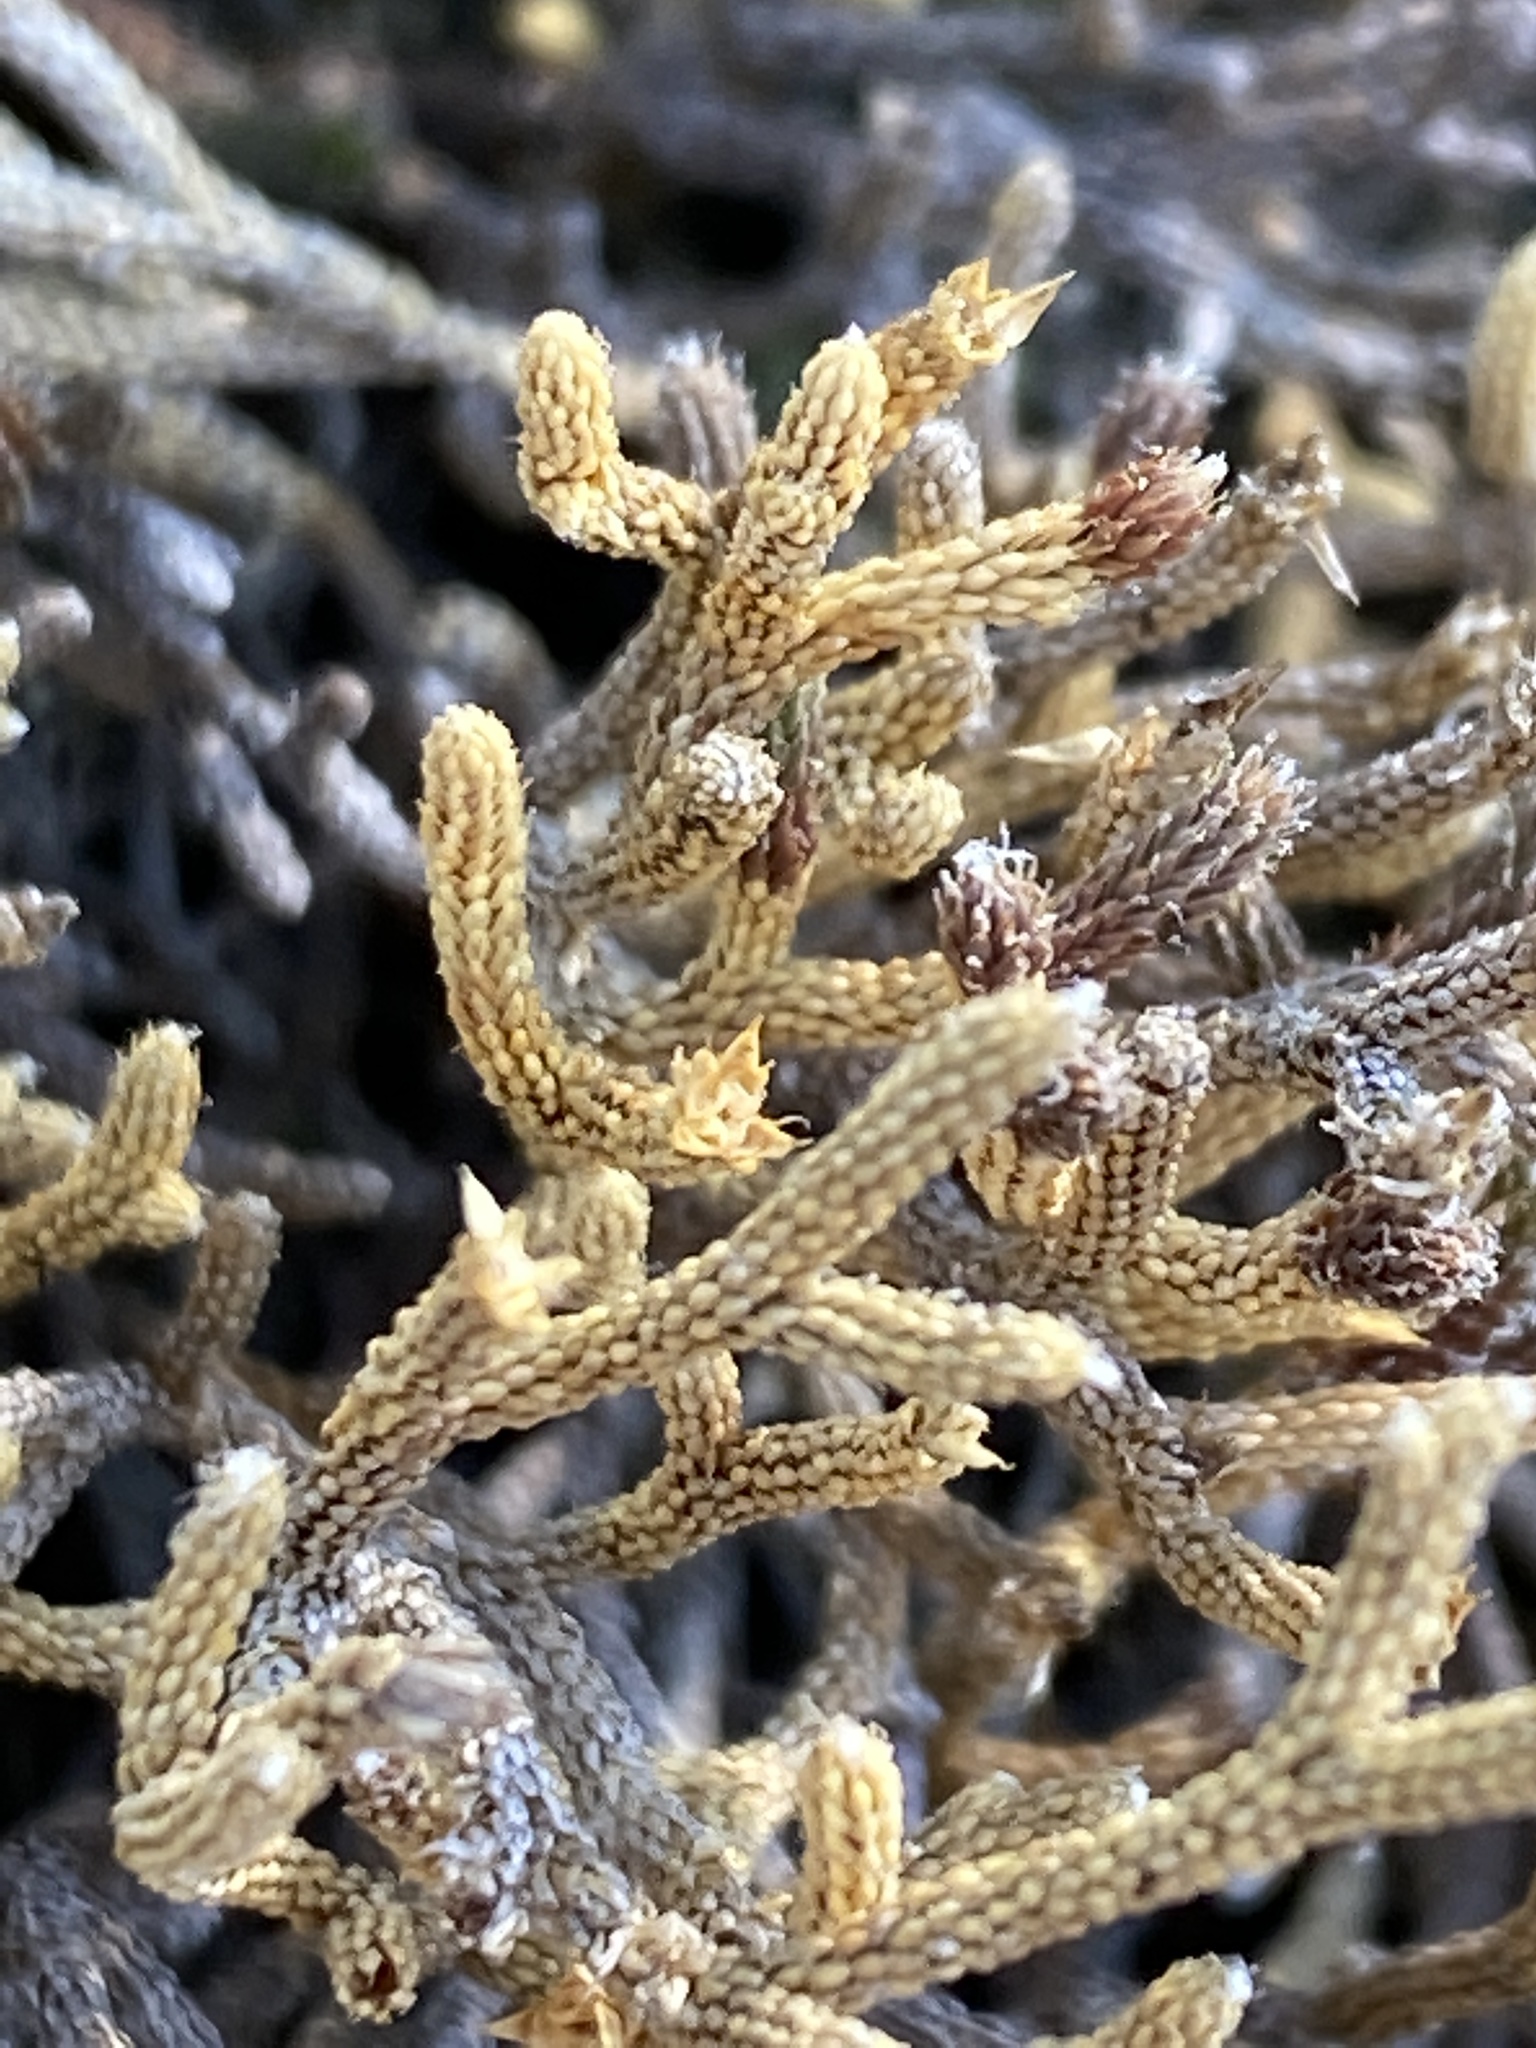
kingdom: Plantae
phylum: Tracheophyta
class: Lycopodiopsida
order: Selaginellales
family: Selaginellaceae
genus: Selaginella
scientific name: Selaginella tortipila
